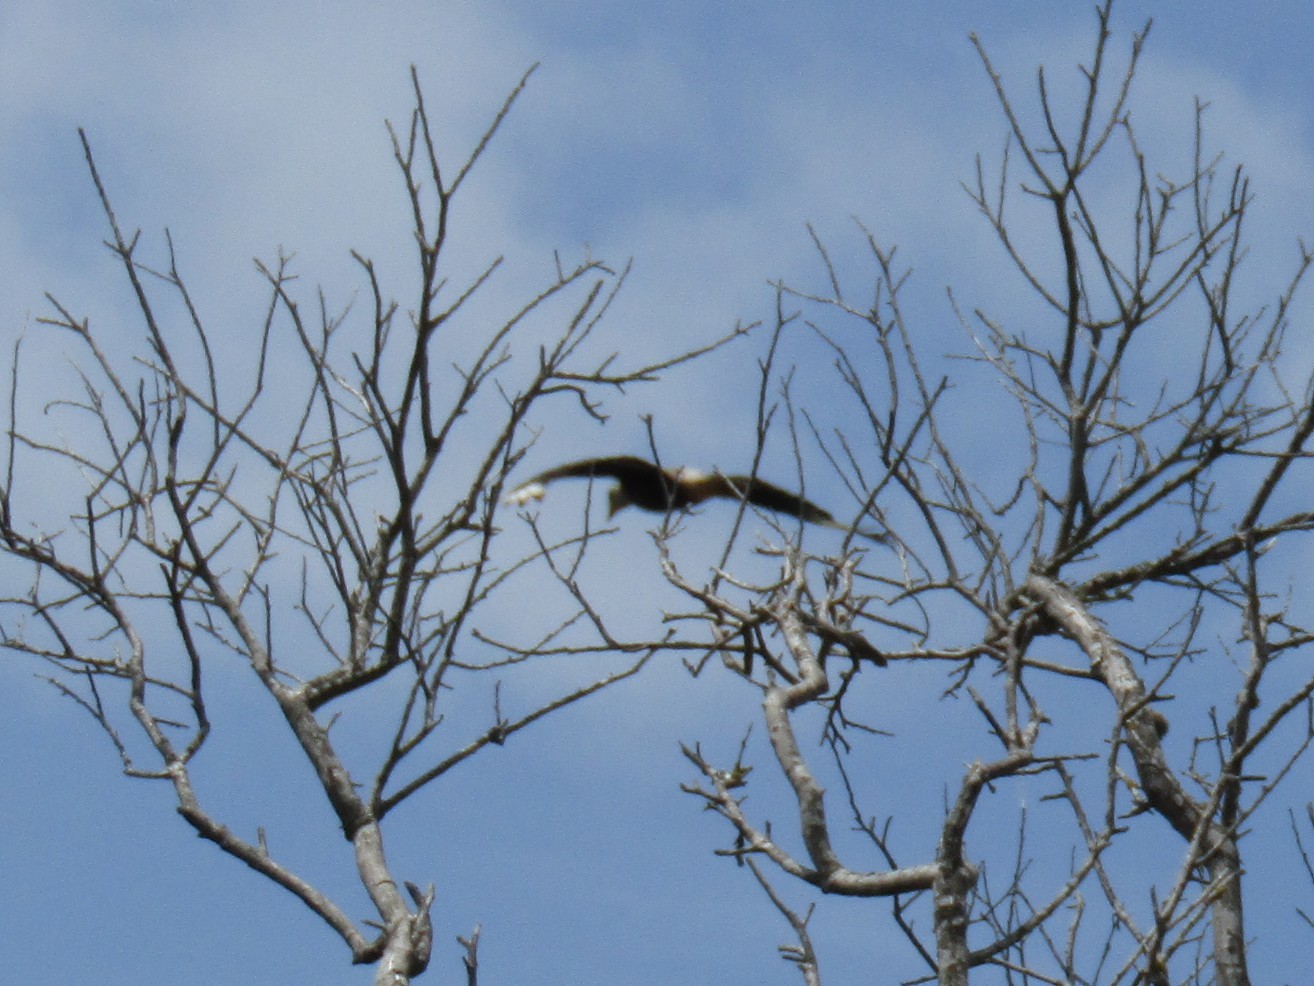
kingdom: Animalia
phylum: Chordata
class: Aves
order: Falconiformes
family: Falconidae
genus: Caracara
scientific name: Caracara plancus
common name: Southern caracara
